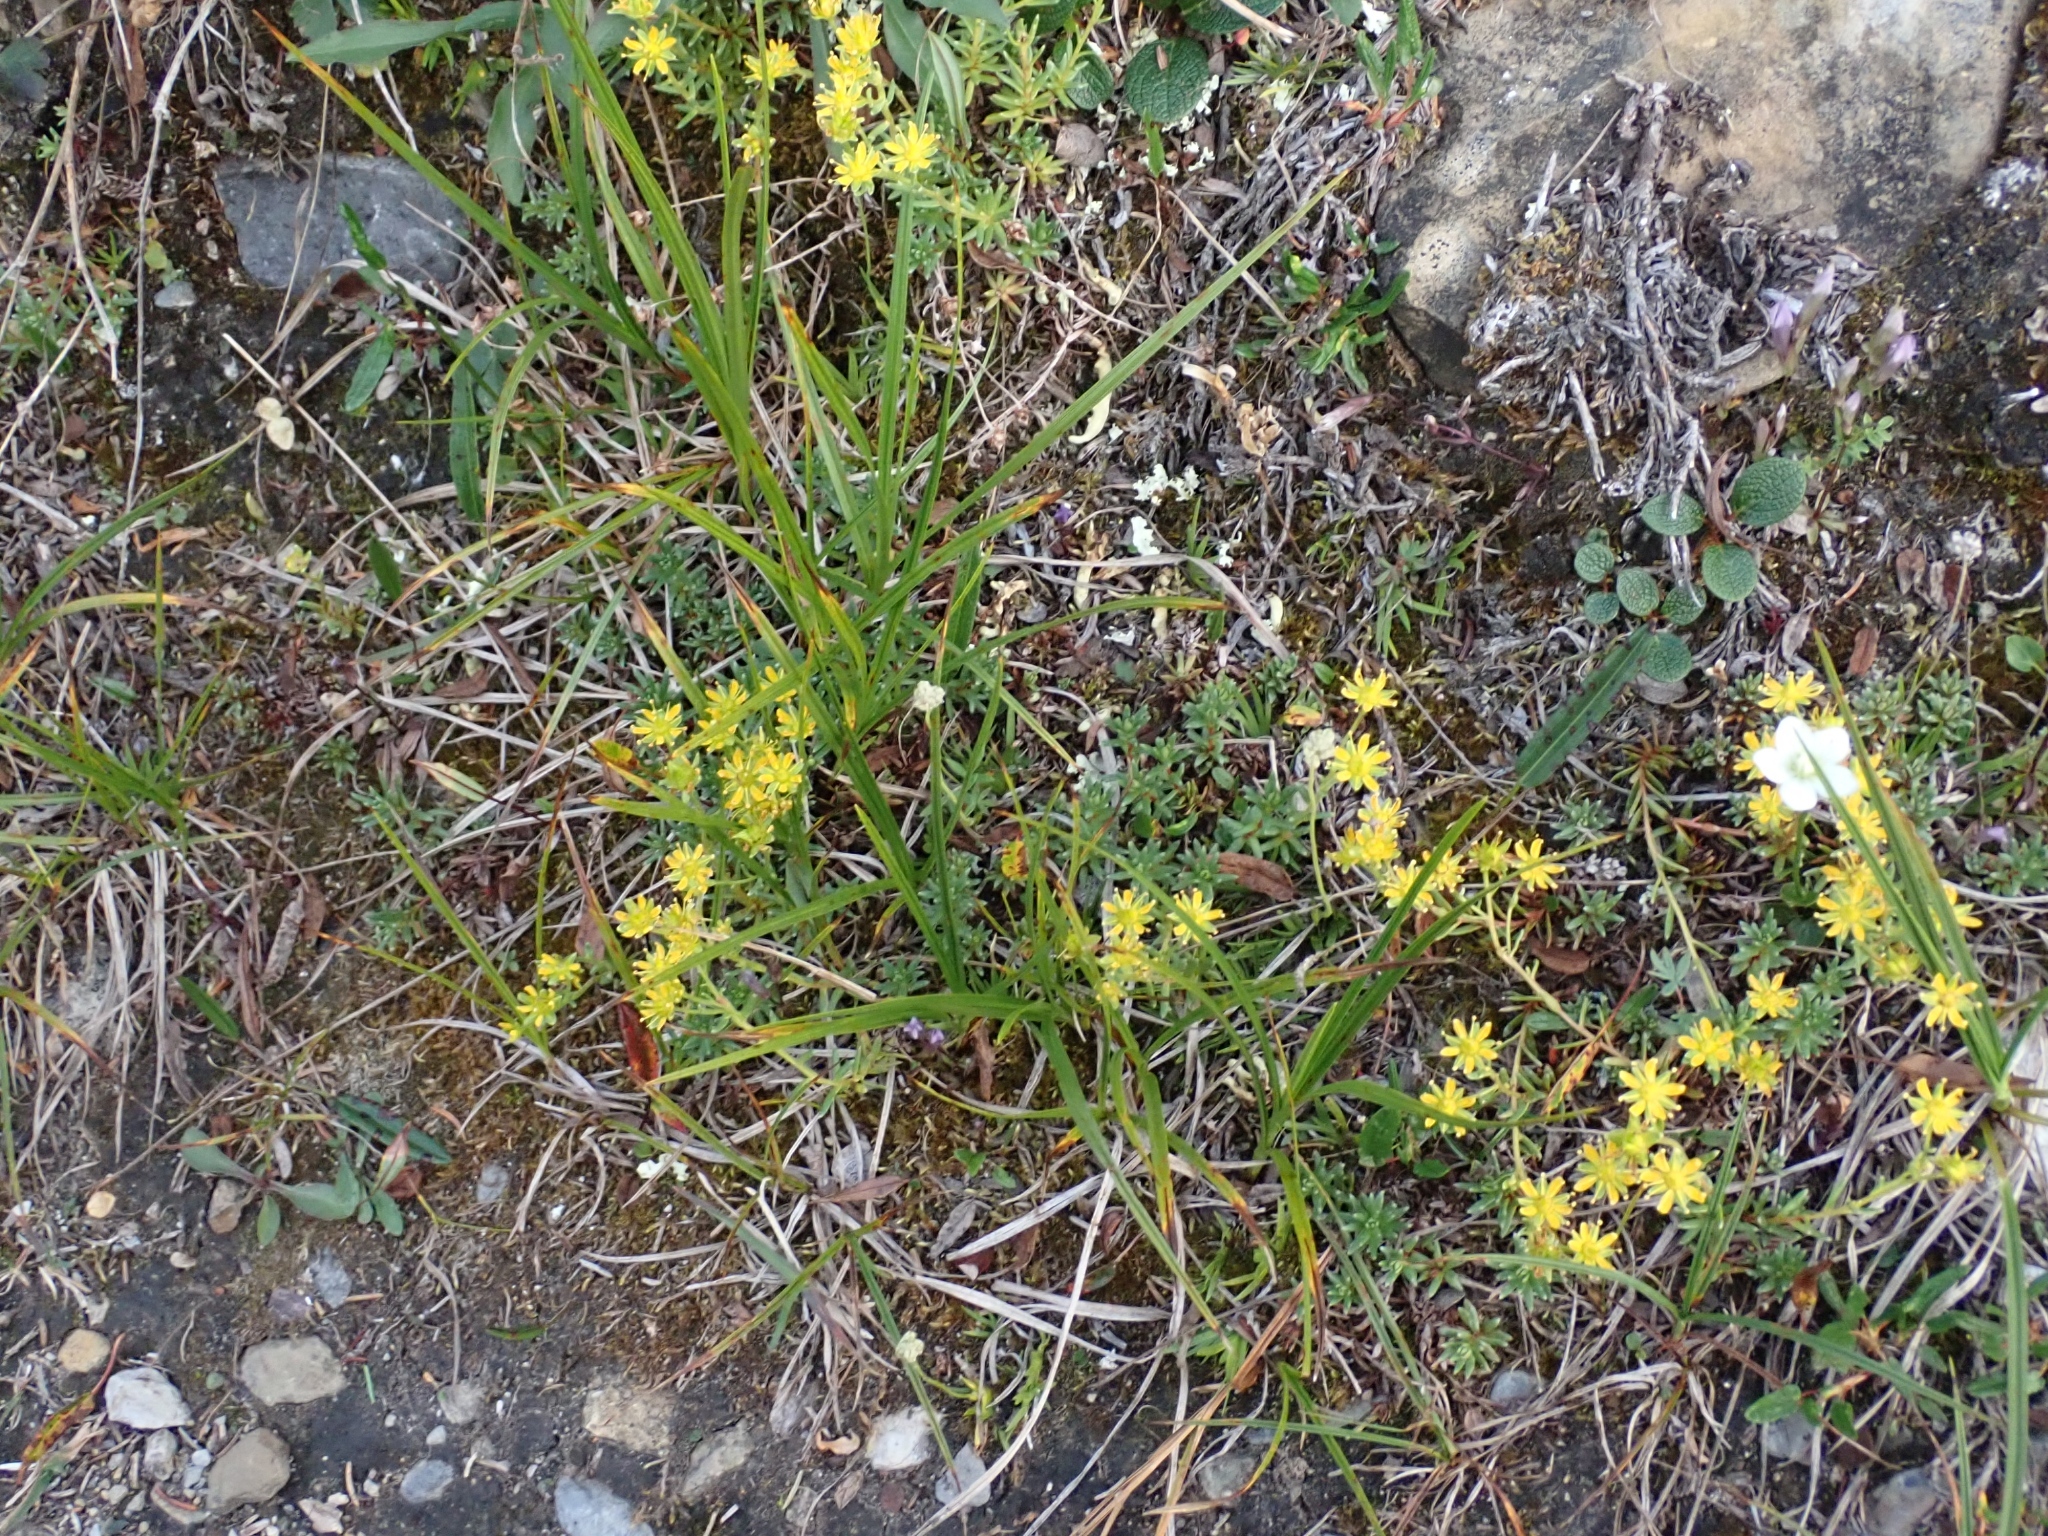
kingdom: Plantae
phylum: Tracheophyta
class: Magnoliopsida
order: Saxifragales
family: Saxifragaceae
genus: Saxifraga
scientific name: Saxifraga aizoides
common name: Yellow mountain saxifrage
